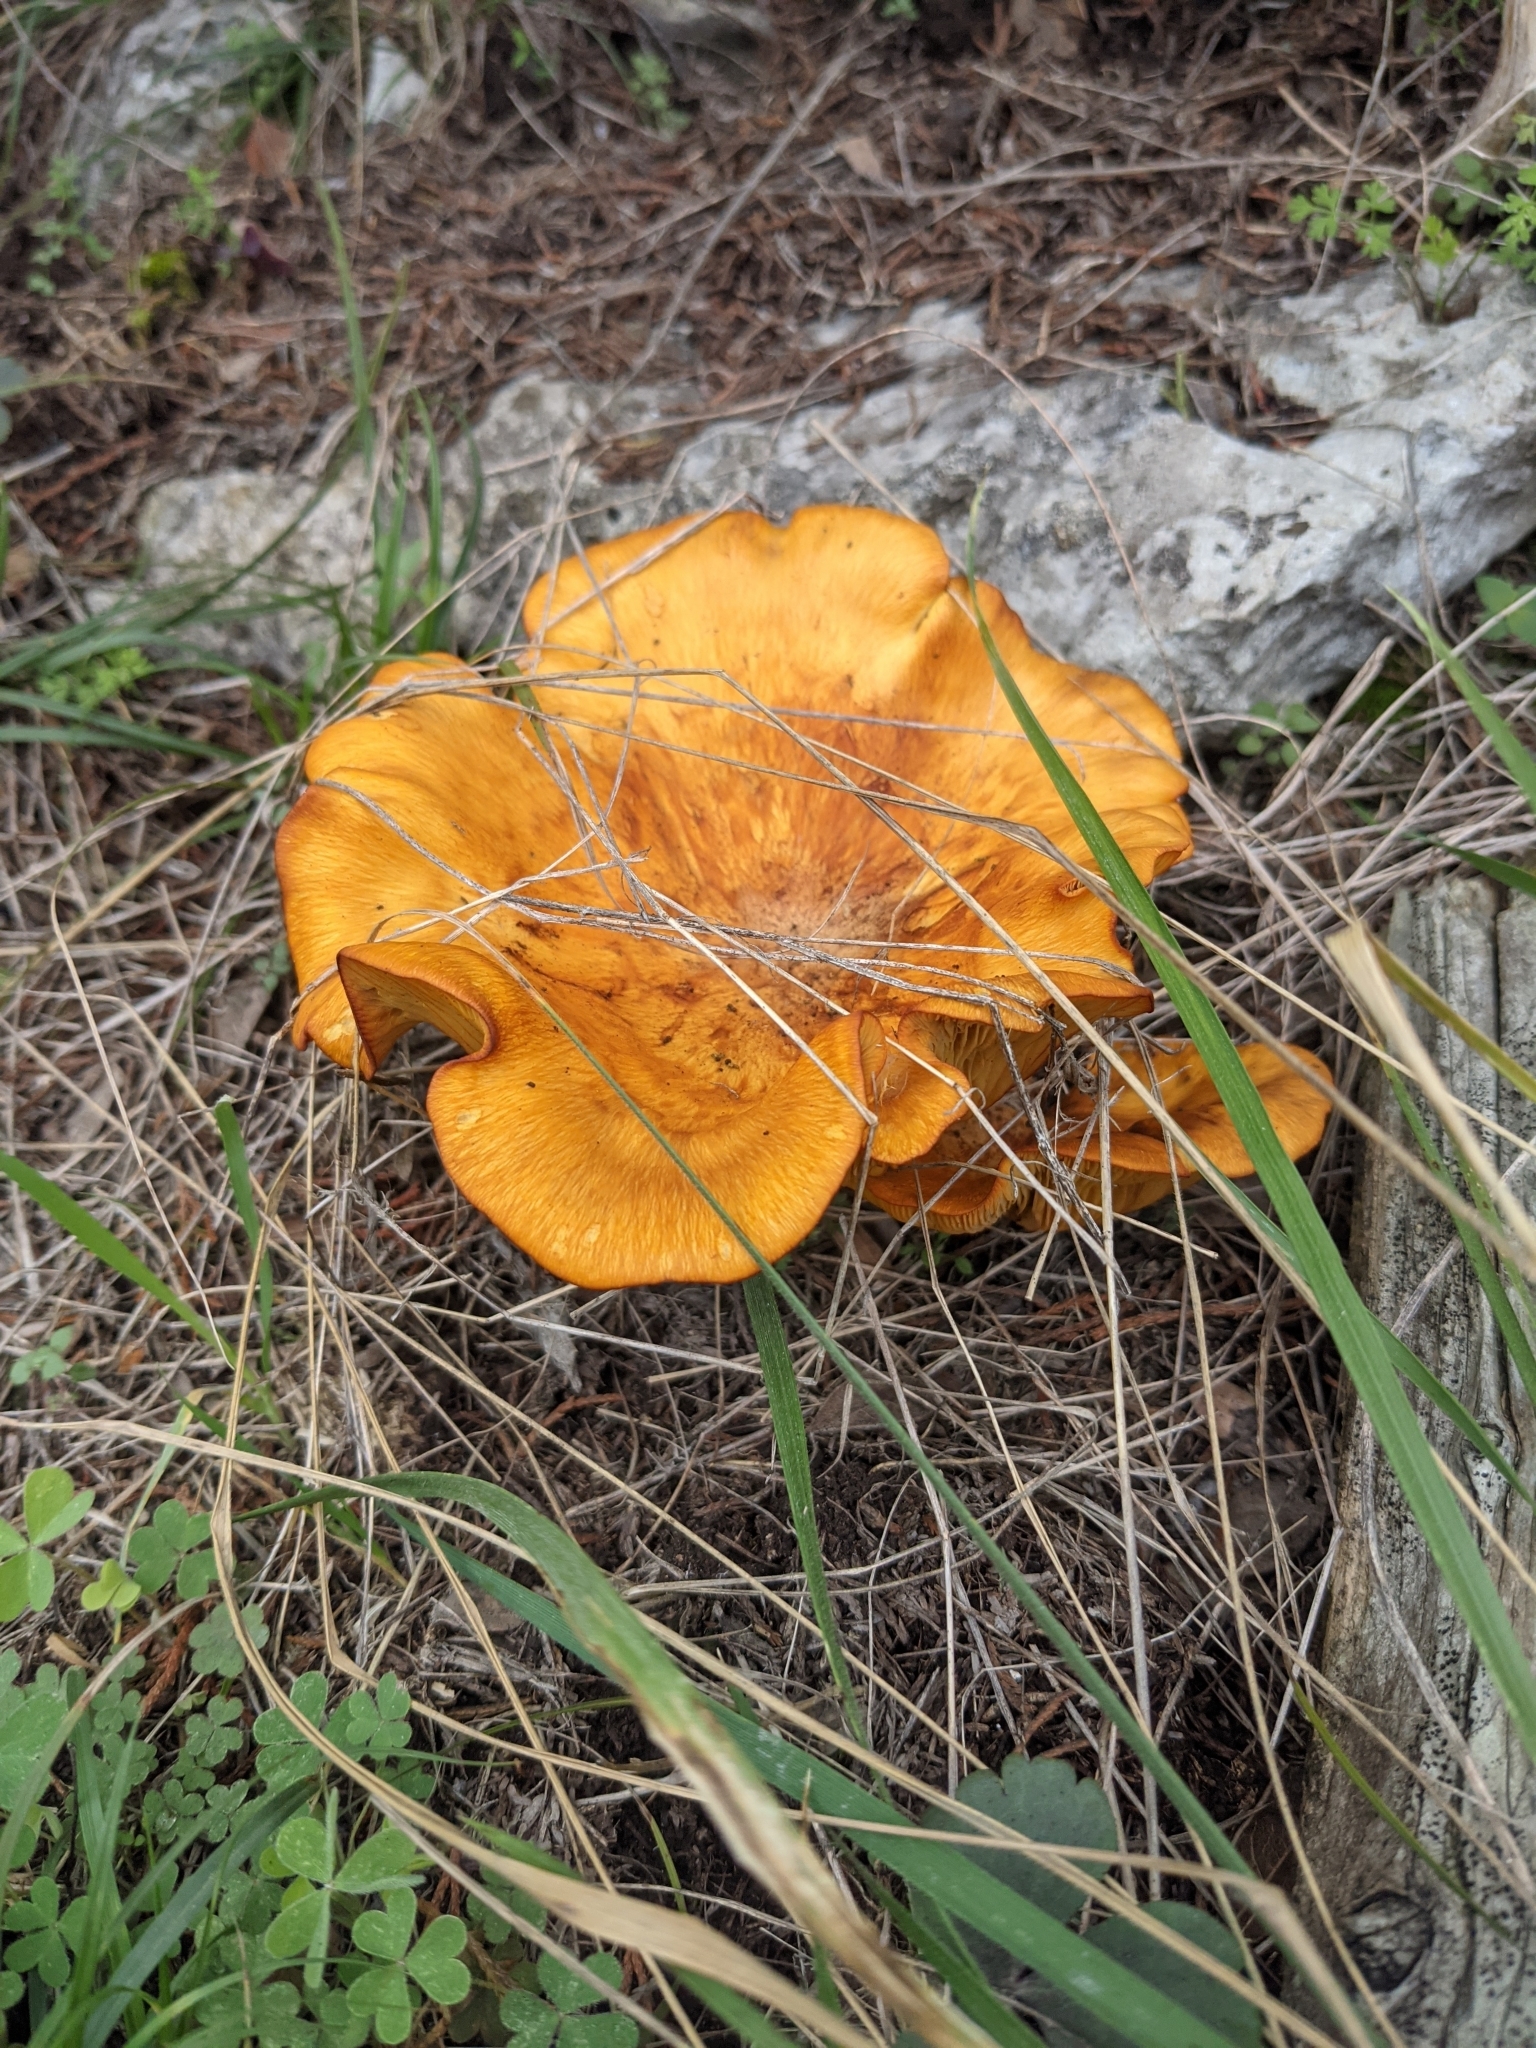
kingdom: Fungi
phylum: Basidiomycota
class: Agaricomycetes
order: Agaricales
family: Omphalotaceae
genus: Omphalotus
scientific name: Omphalotus subilludens
